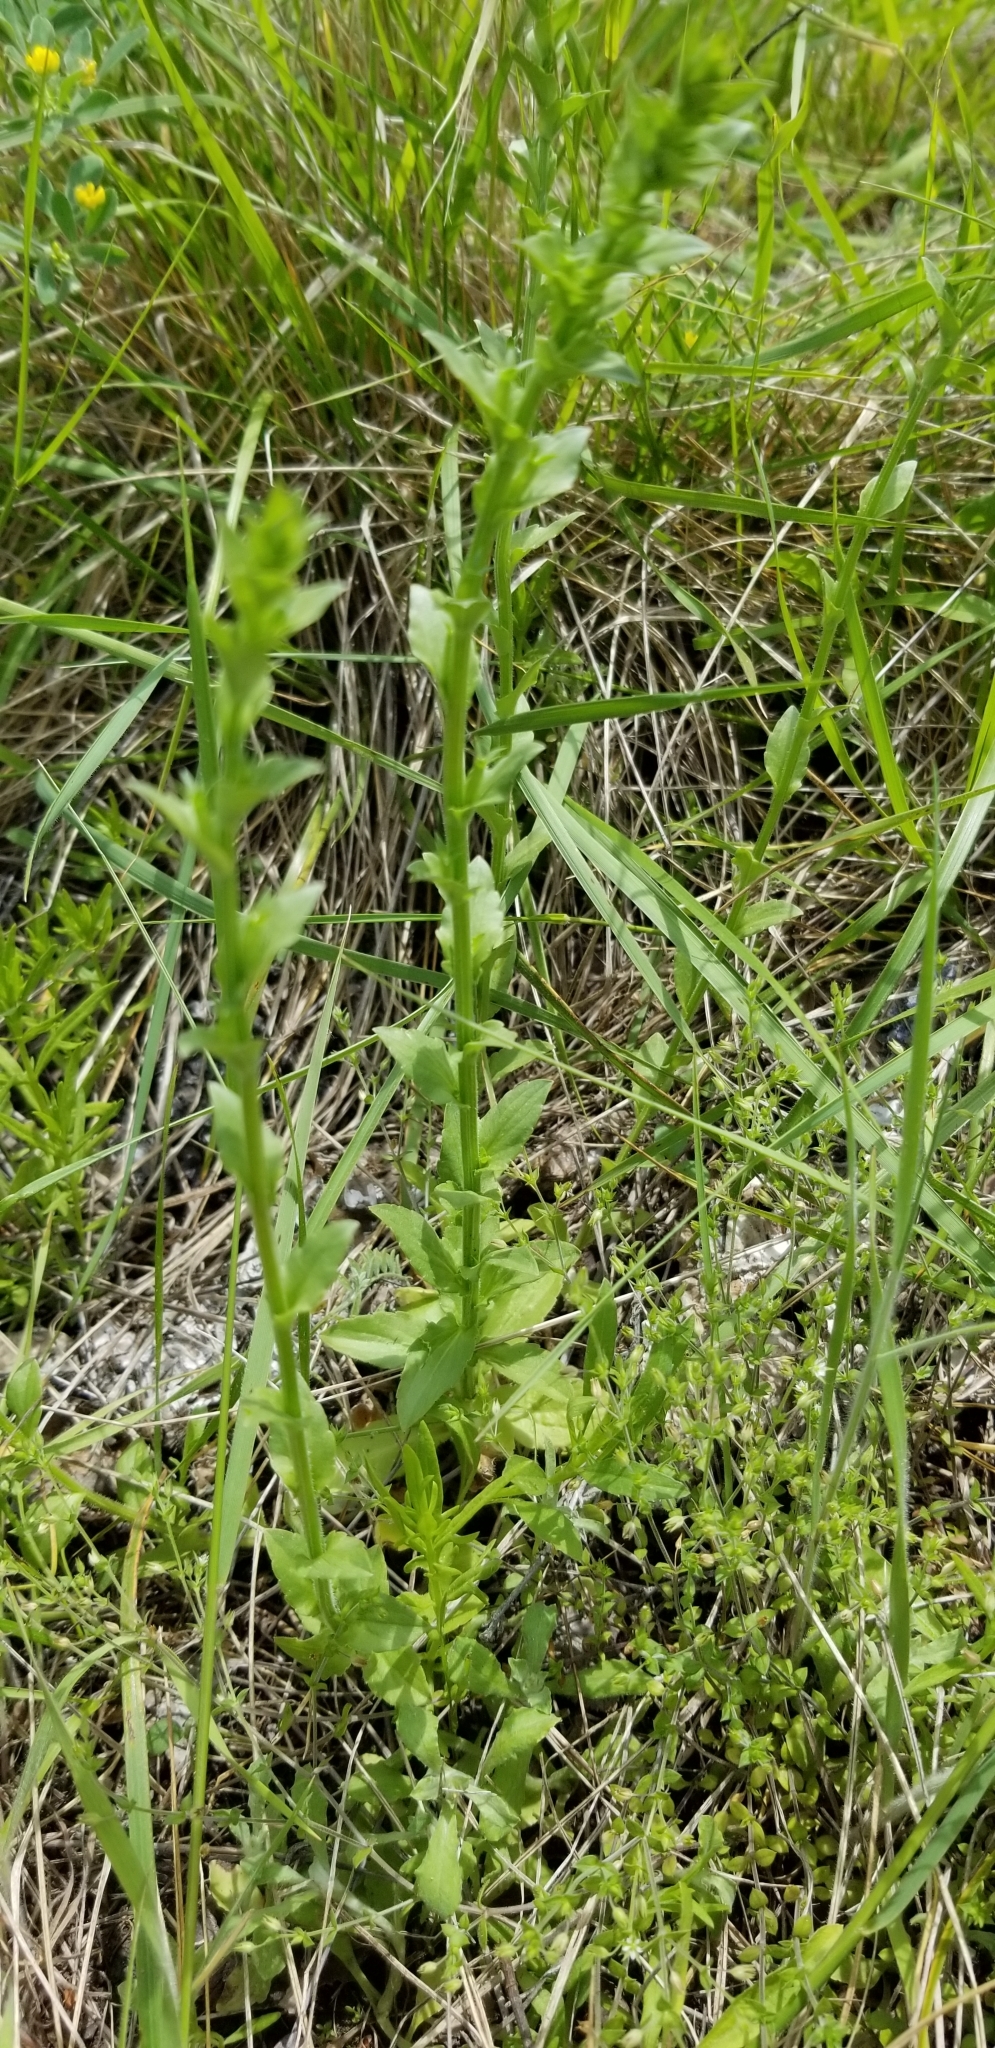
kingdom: Plantae
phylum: Tracheophyta
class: Magnoliopsida
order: Asterales
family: Campanulaceae
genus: Triodanis
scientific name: Triodanis perfoliata
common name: Clasping venus' looking-glass
